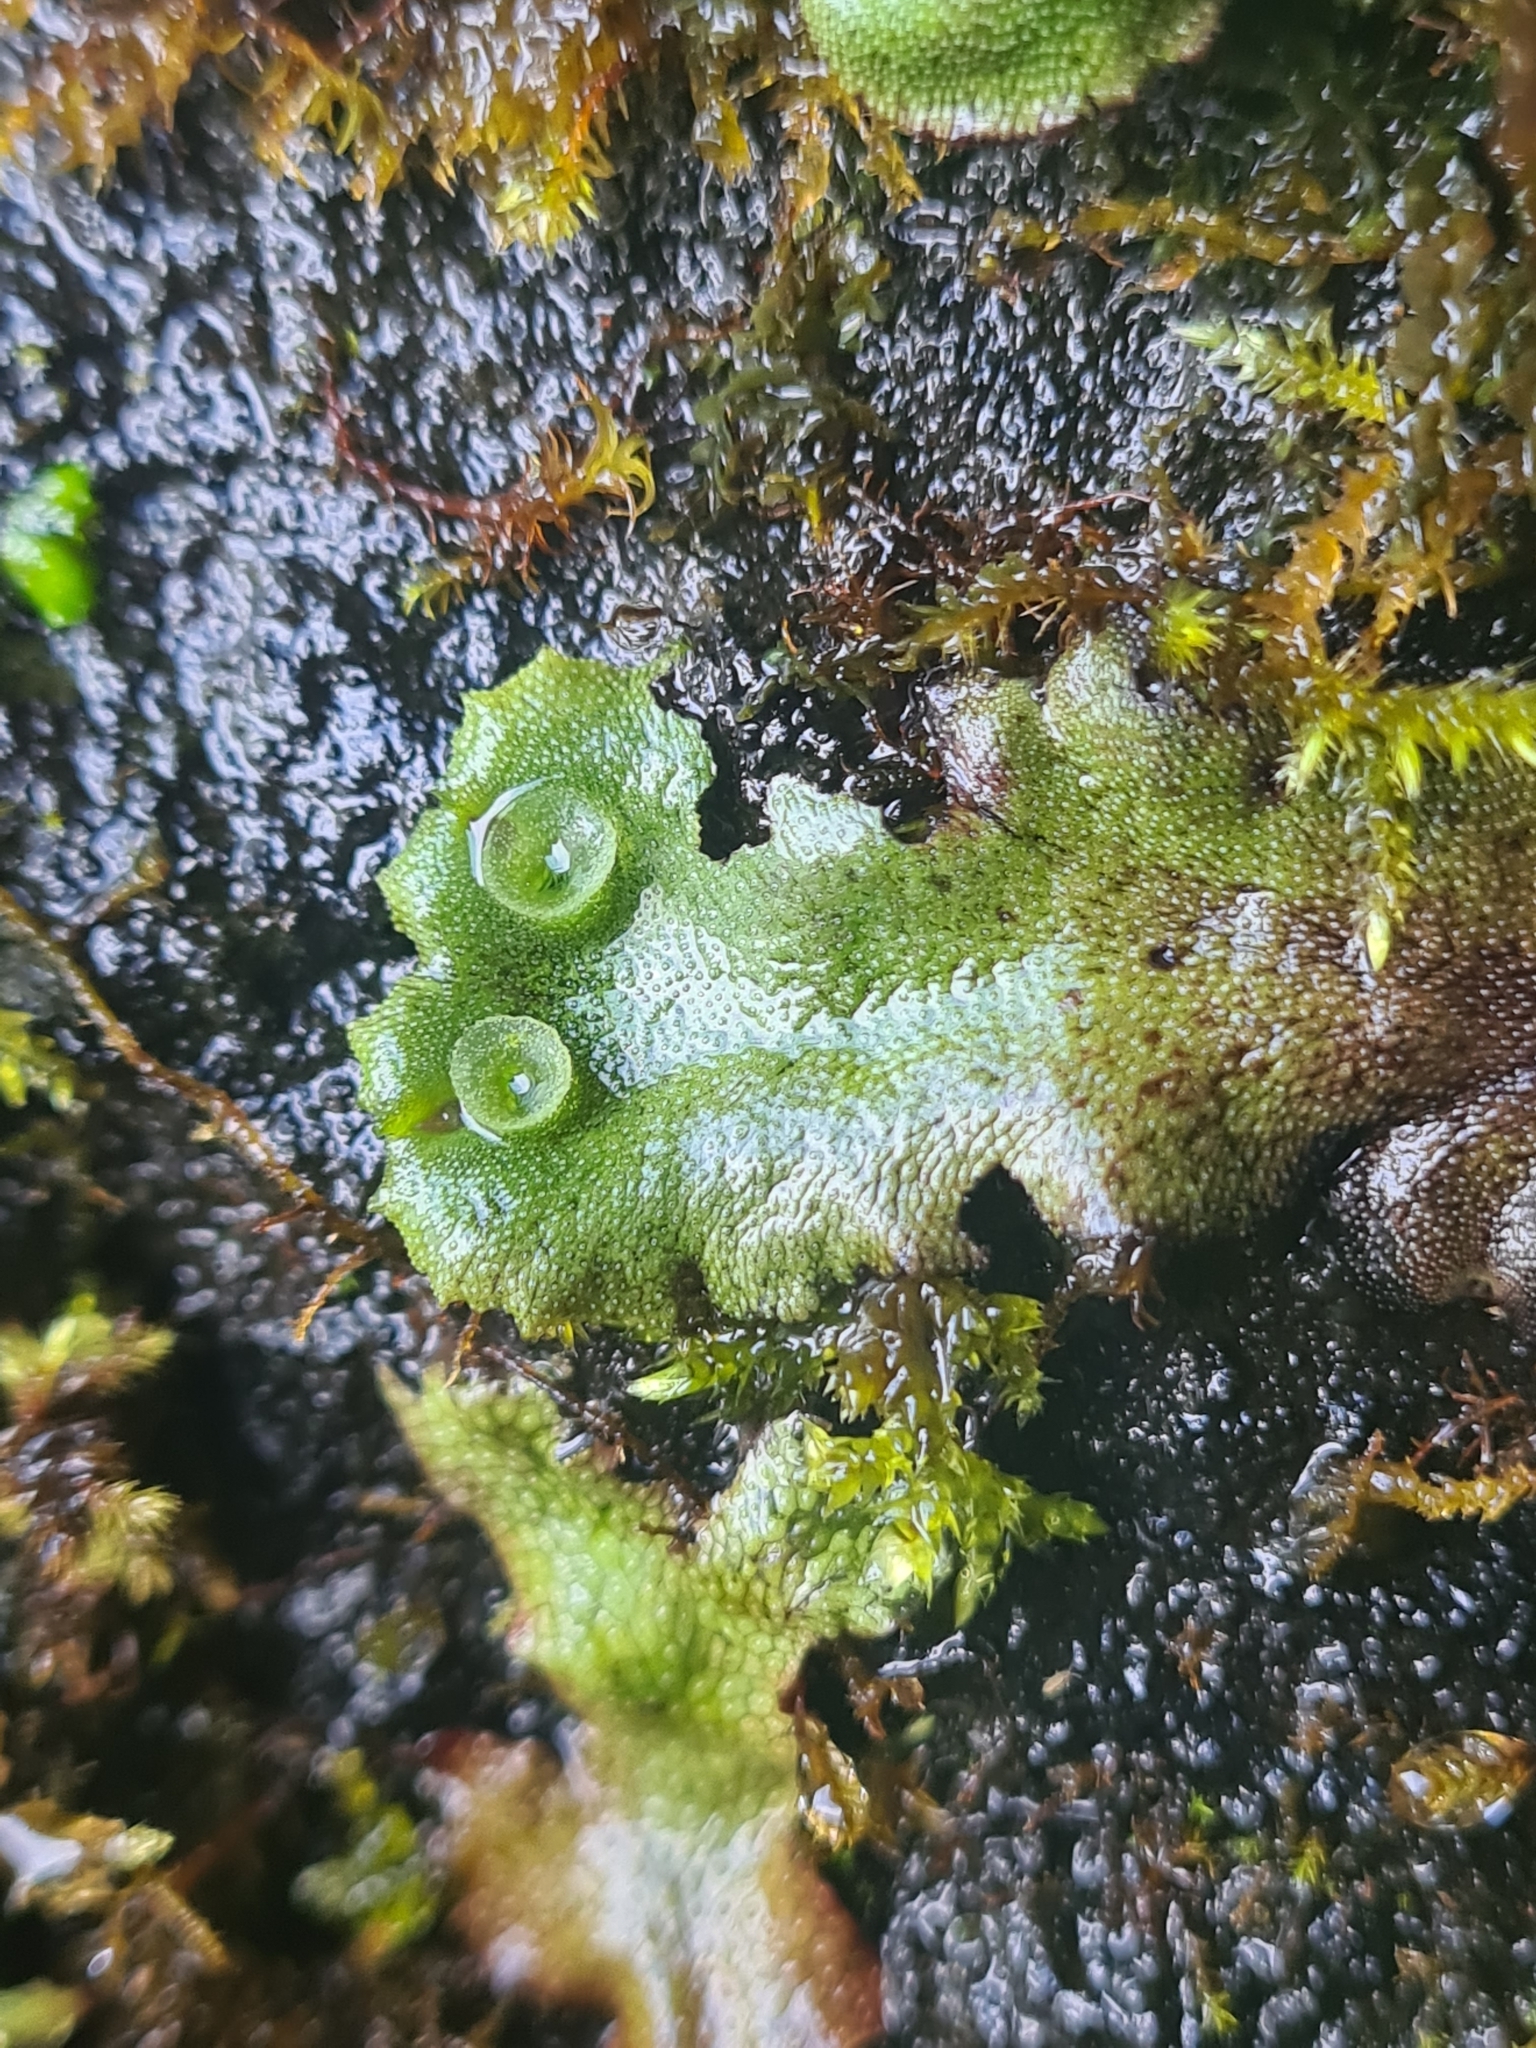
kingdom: Plantae
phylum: Marchantiophyta
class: Marchantiopsida
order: Marchantiales
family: Marchantiaceae
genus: Marchantia
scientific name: Marchantia polymorpha
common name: Common liverwort
